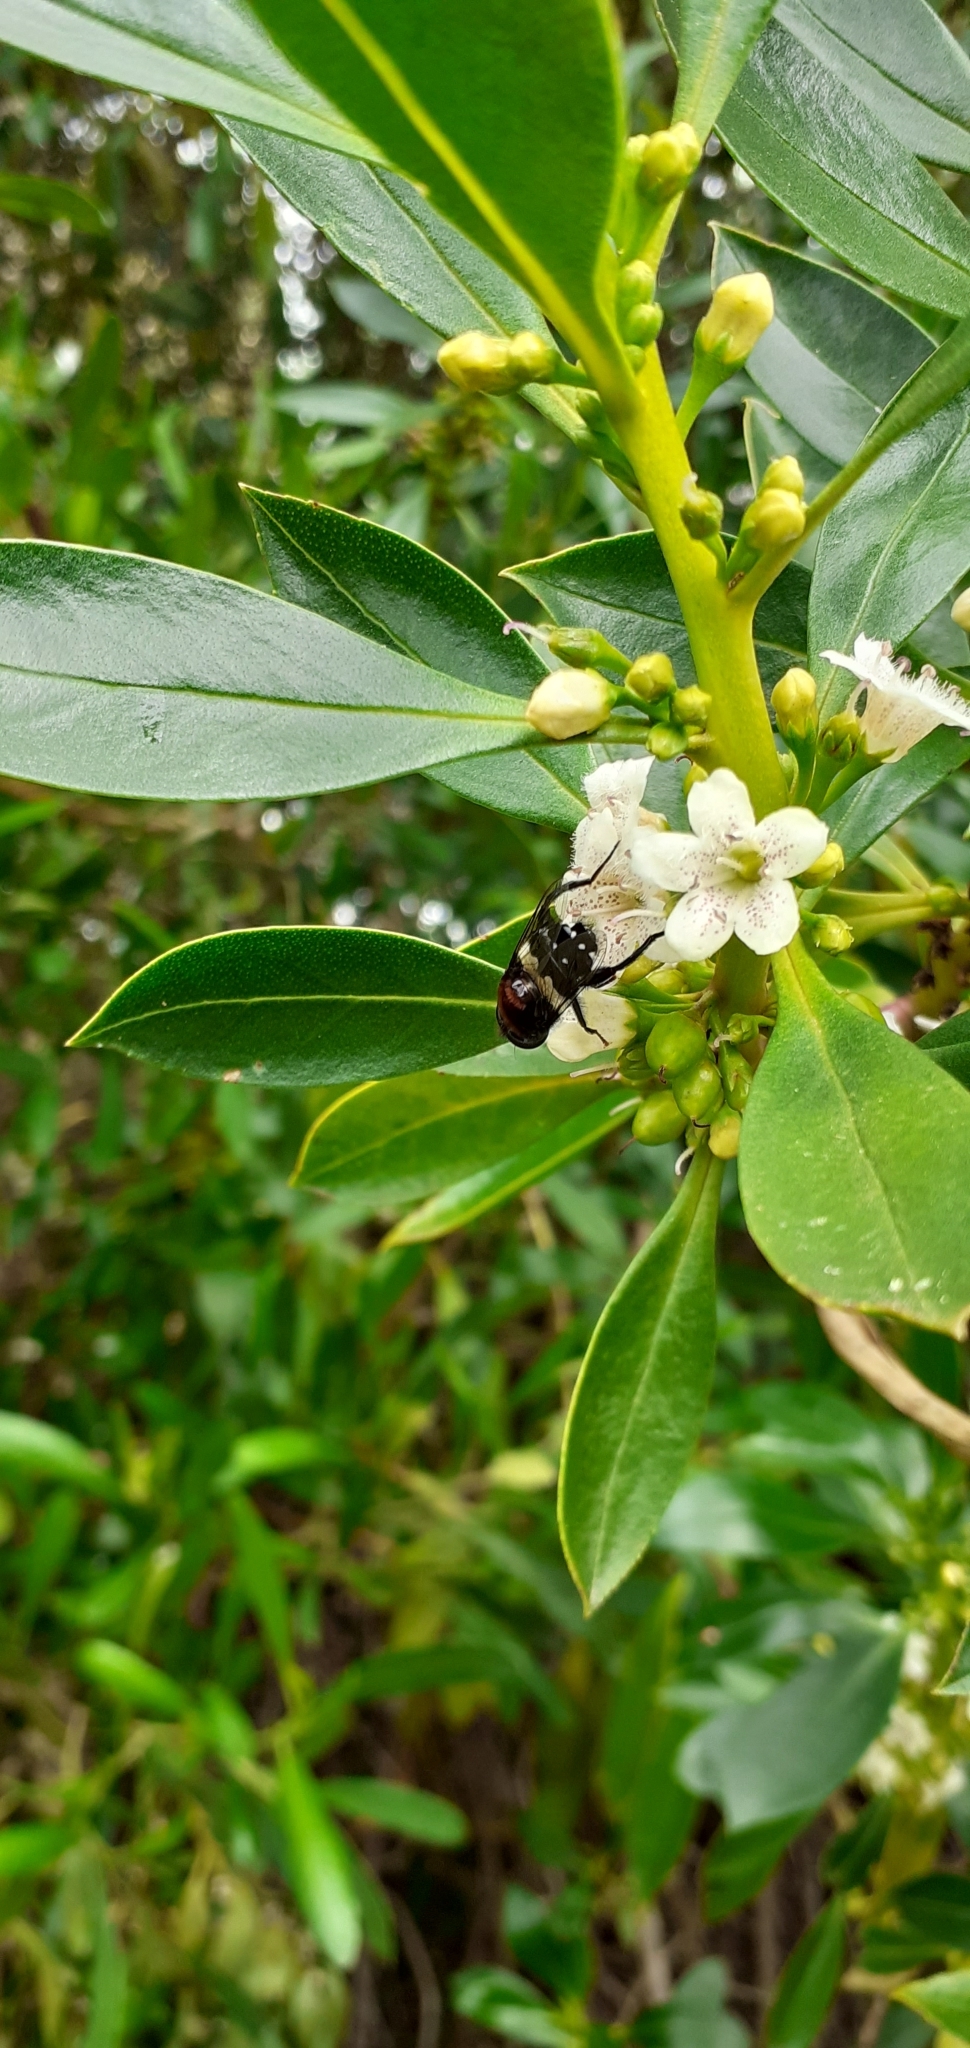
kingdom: Animalia
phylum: Arthropoda
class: Insecta
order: Diptera
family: Syrphidae
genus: Helophilus
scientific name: Helophilus cingulatus
